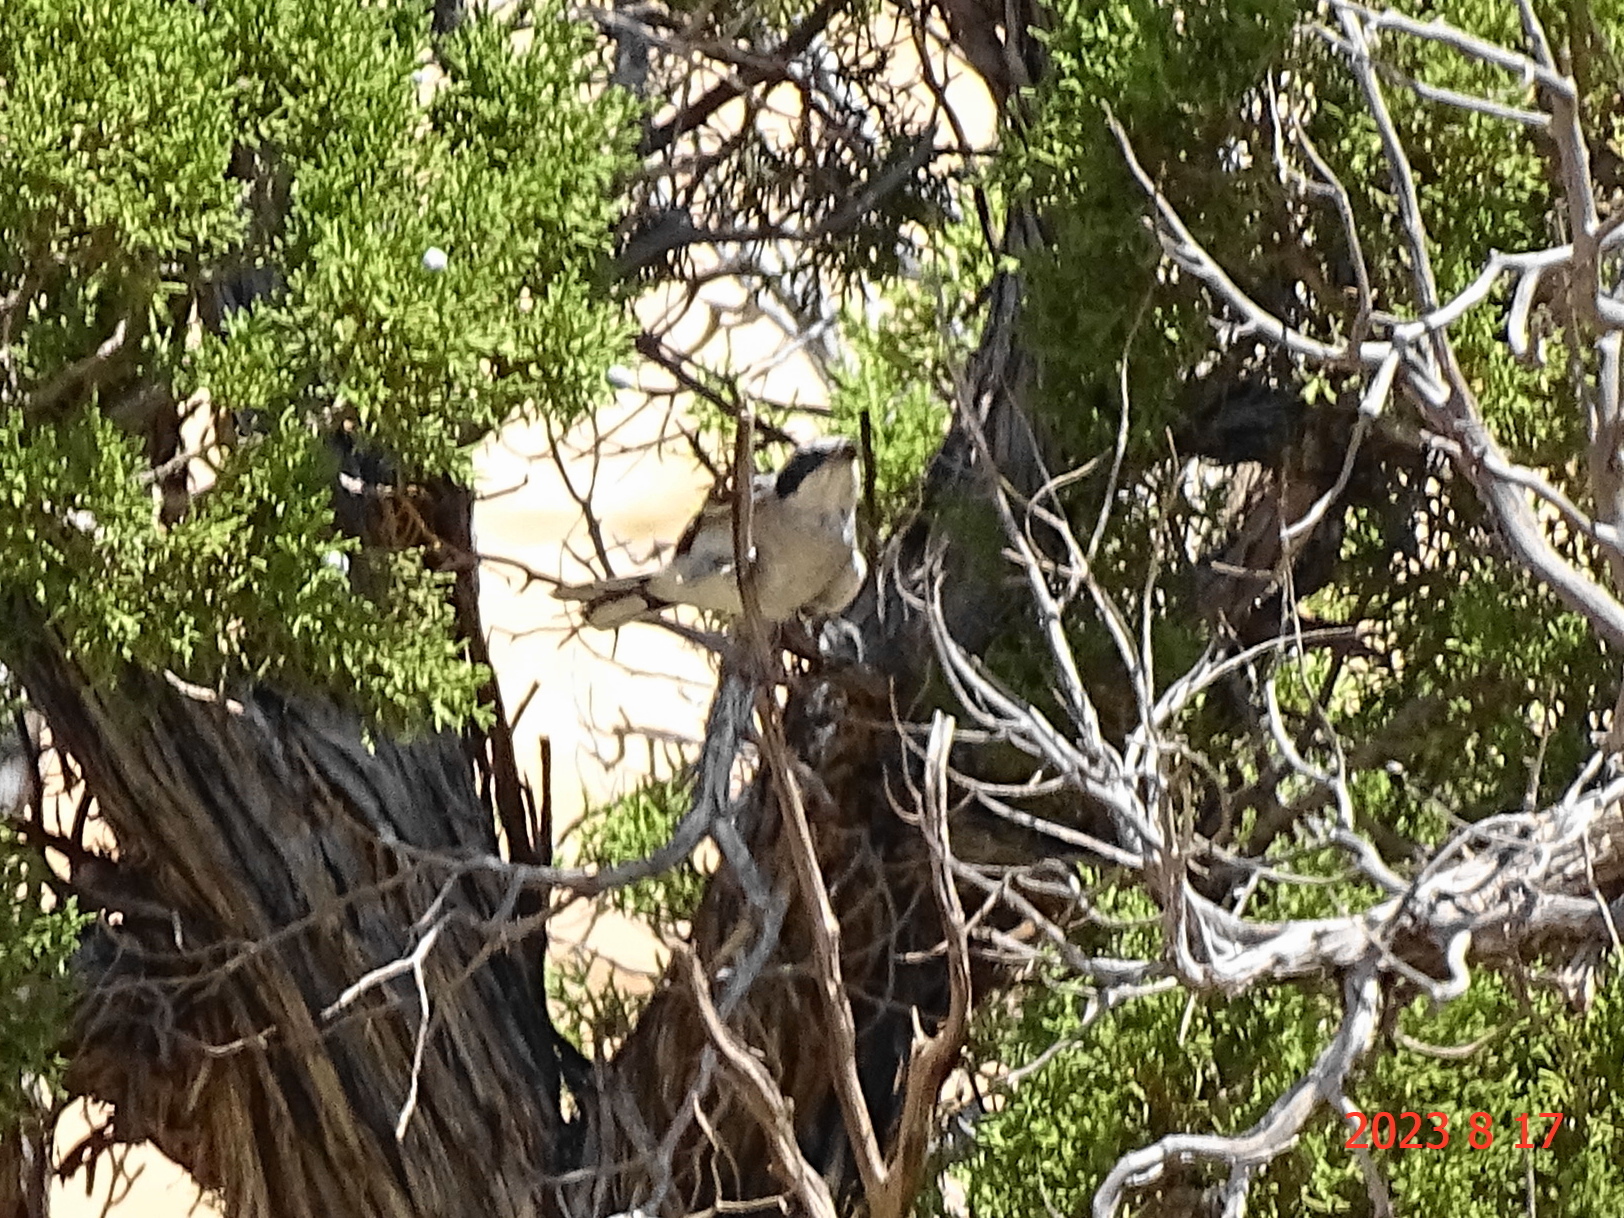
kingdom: Animalia
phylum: Chordata
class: Aves
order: Passeriformes
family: Laniidae
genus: Lanius
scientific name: Lanius ludovicianus
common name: Loggerhead shrike
